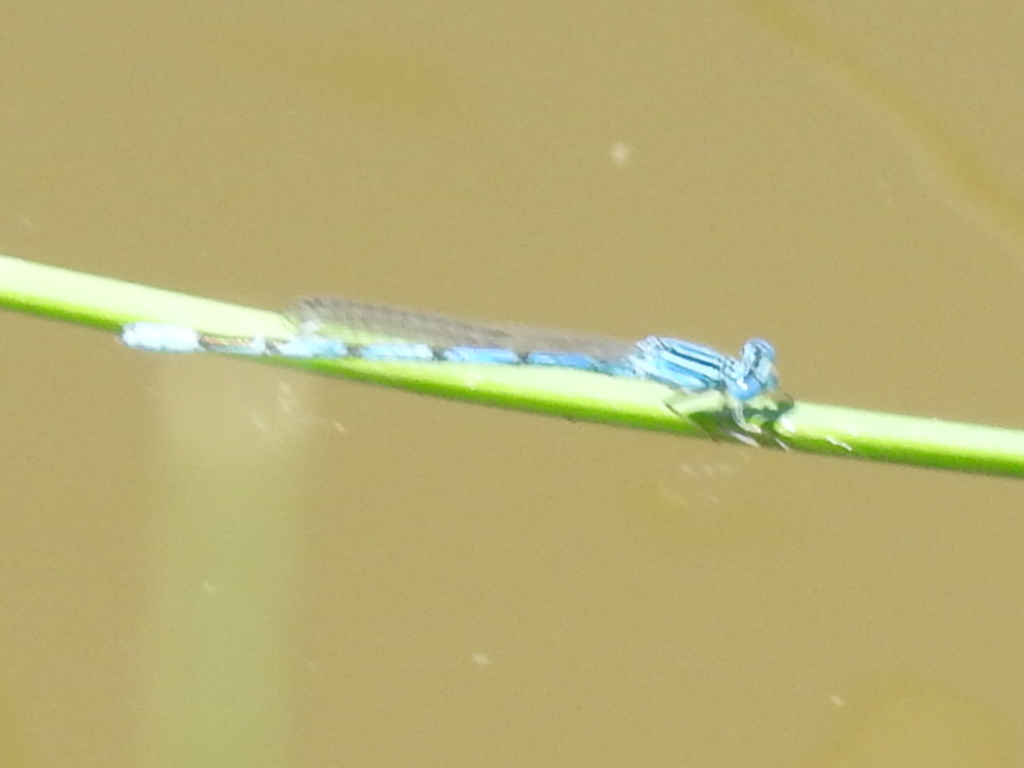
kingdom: Animalia
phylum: Arthropoda
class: Insecta
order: Odonata
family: Coenagrionidae
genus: Enallagma
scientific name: Enallagma basidens
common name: Double-striped bluet
